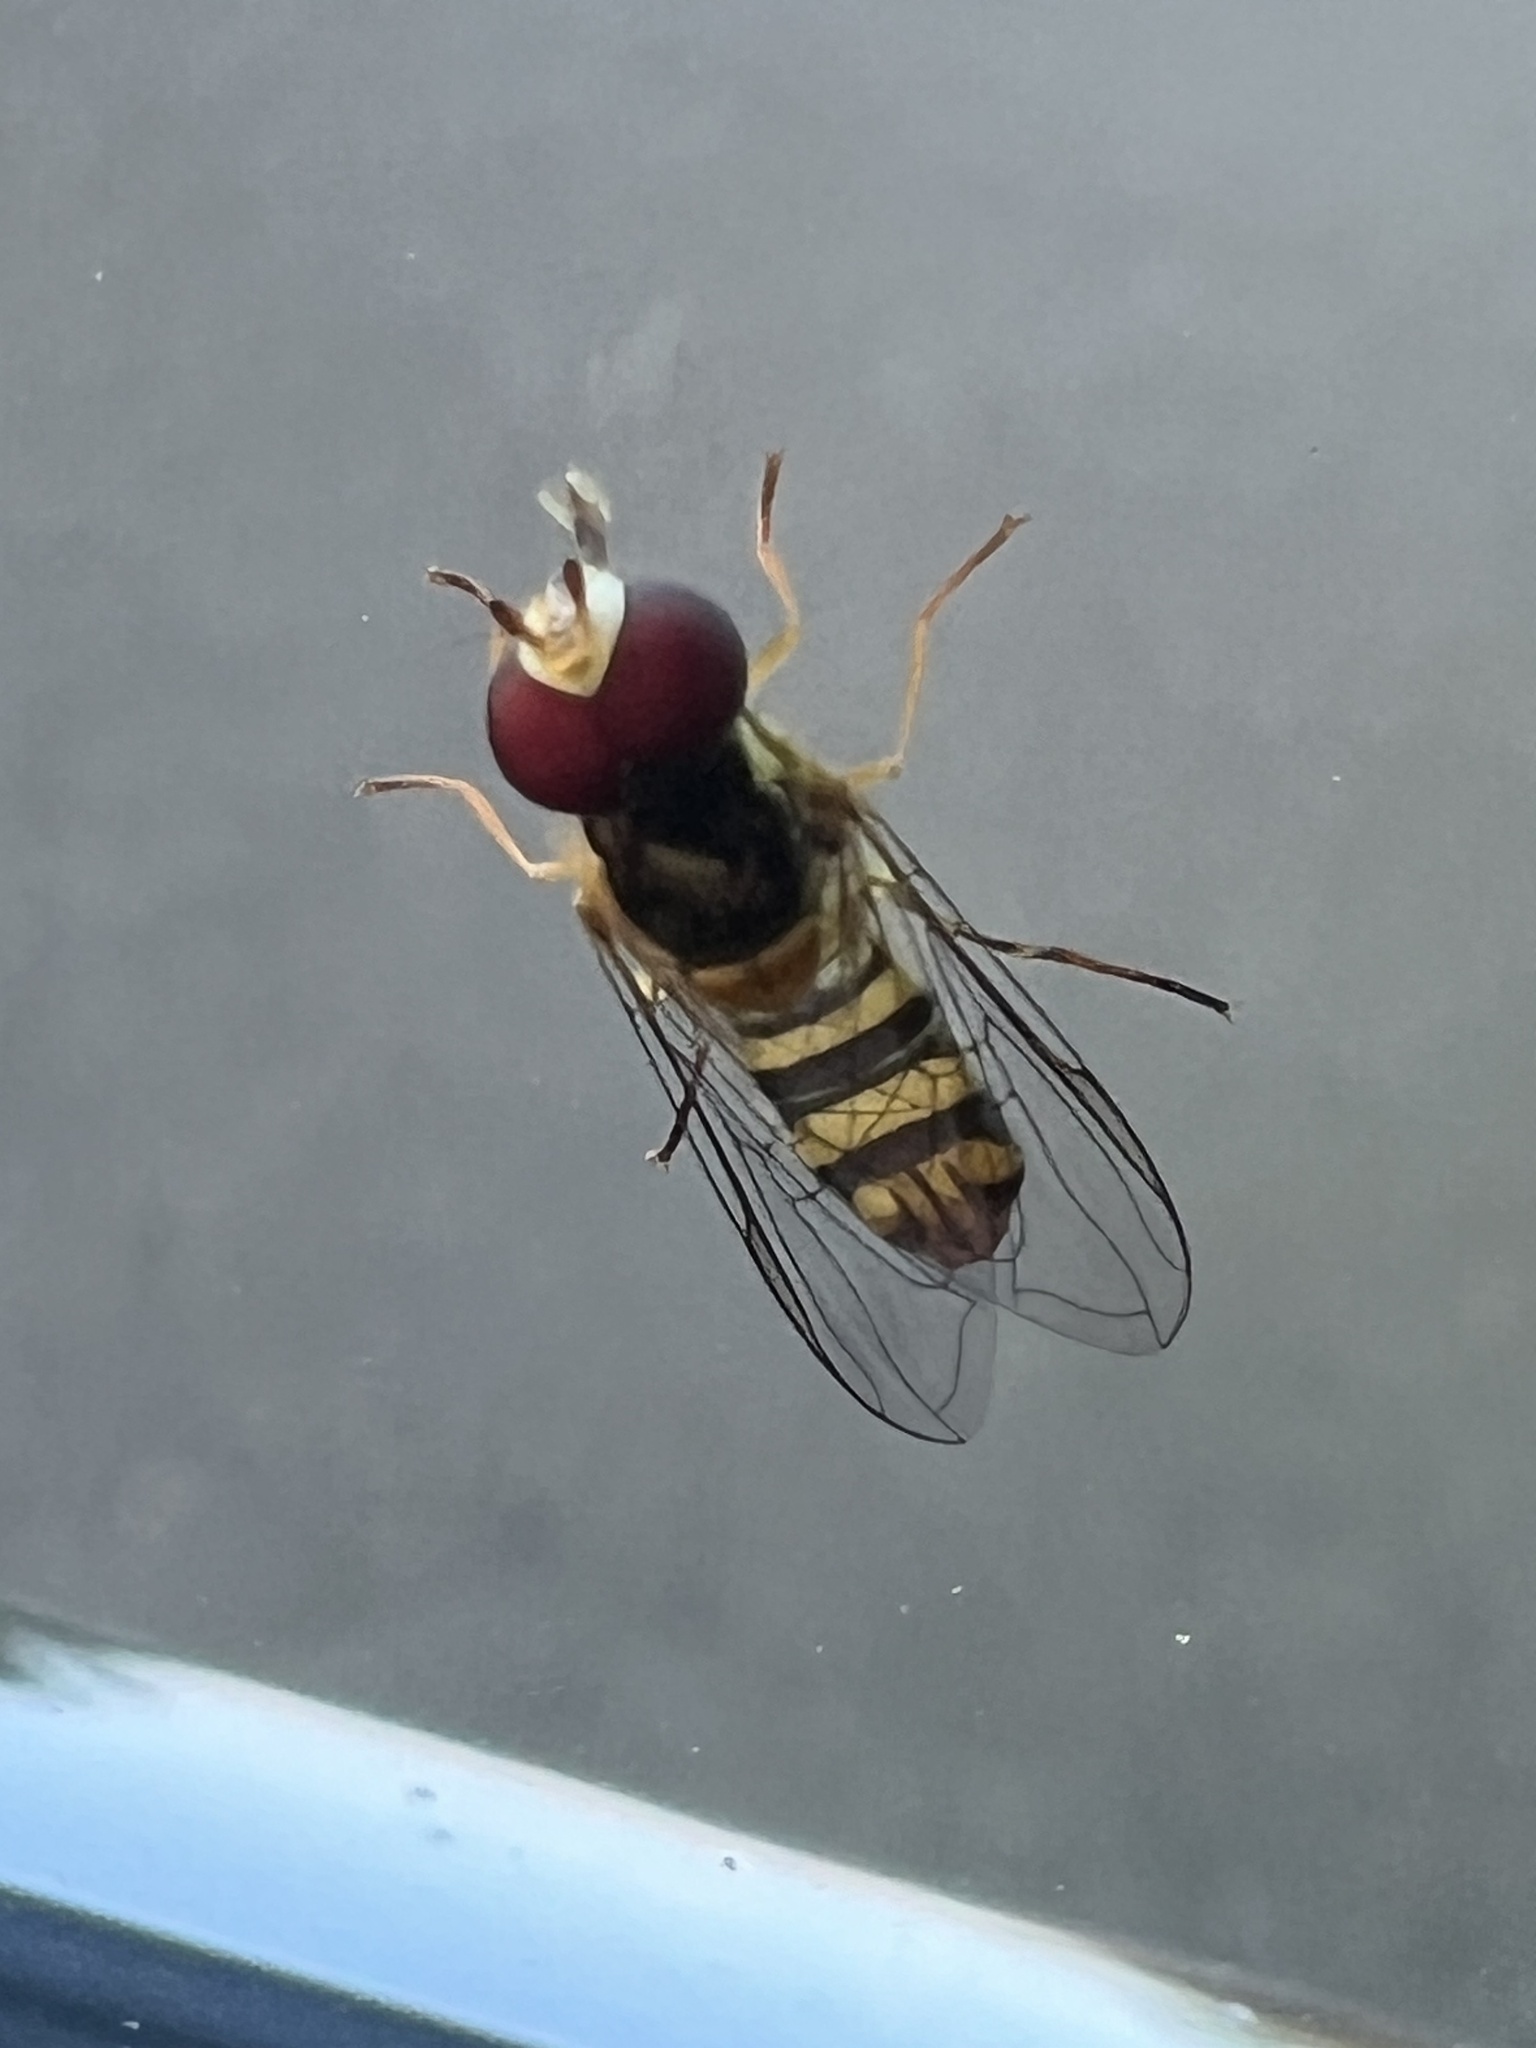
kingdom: Animalia
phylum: Arthropoda
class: Insecta
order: Diptera
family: Syrphidae
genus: Allograpta
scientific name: Allograpta obliqua
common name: Common oblique syrphid
